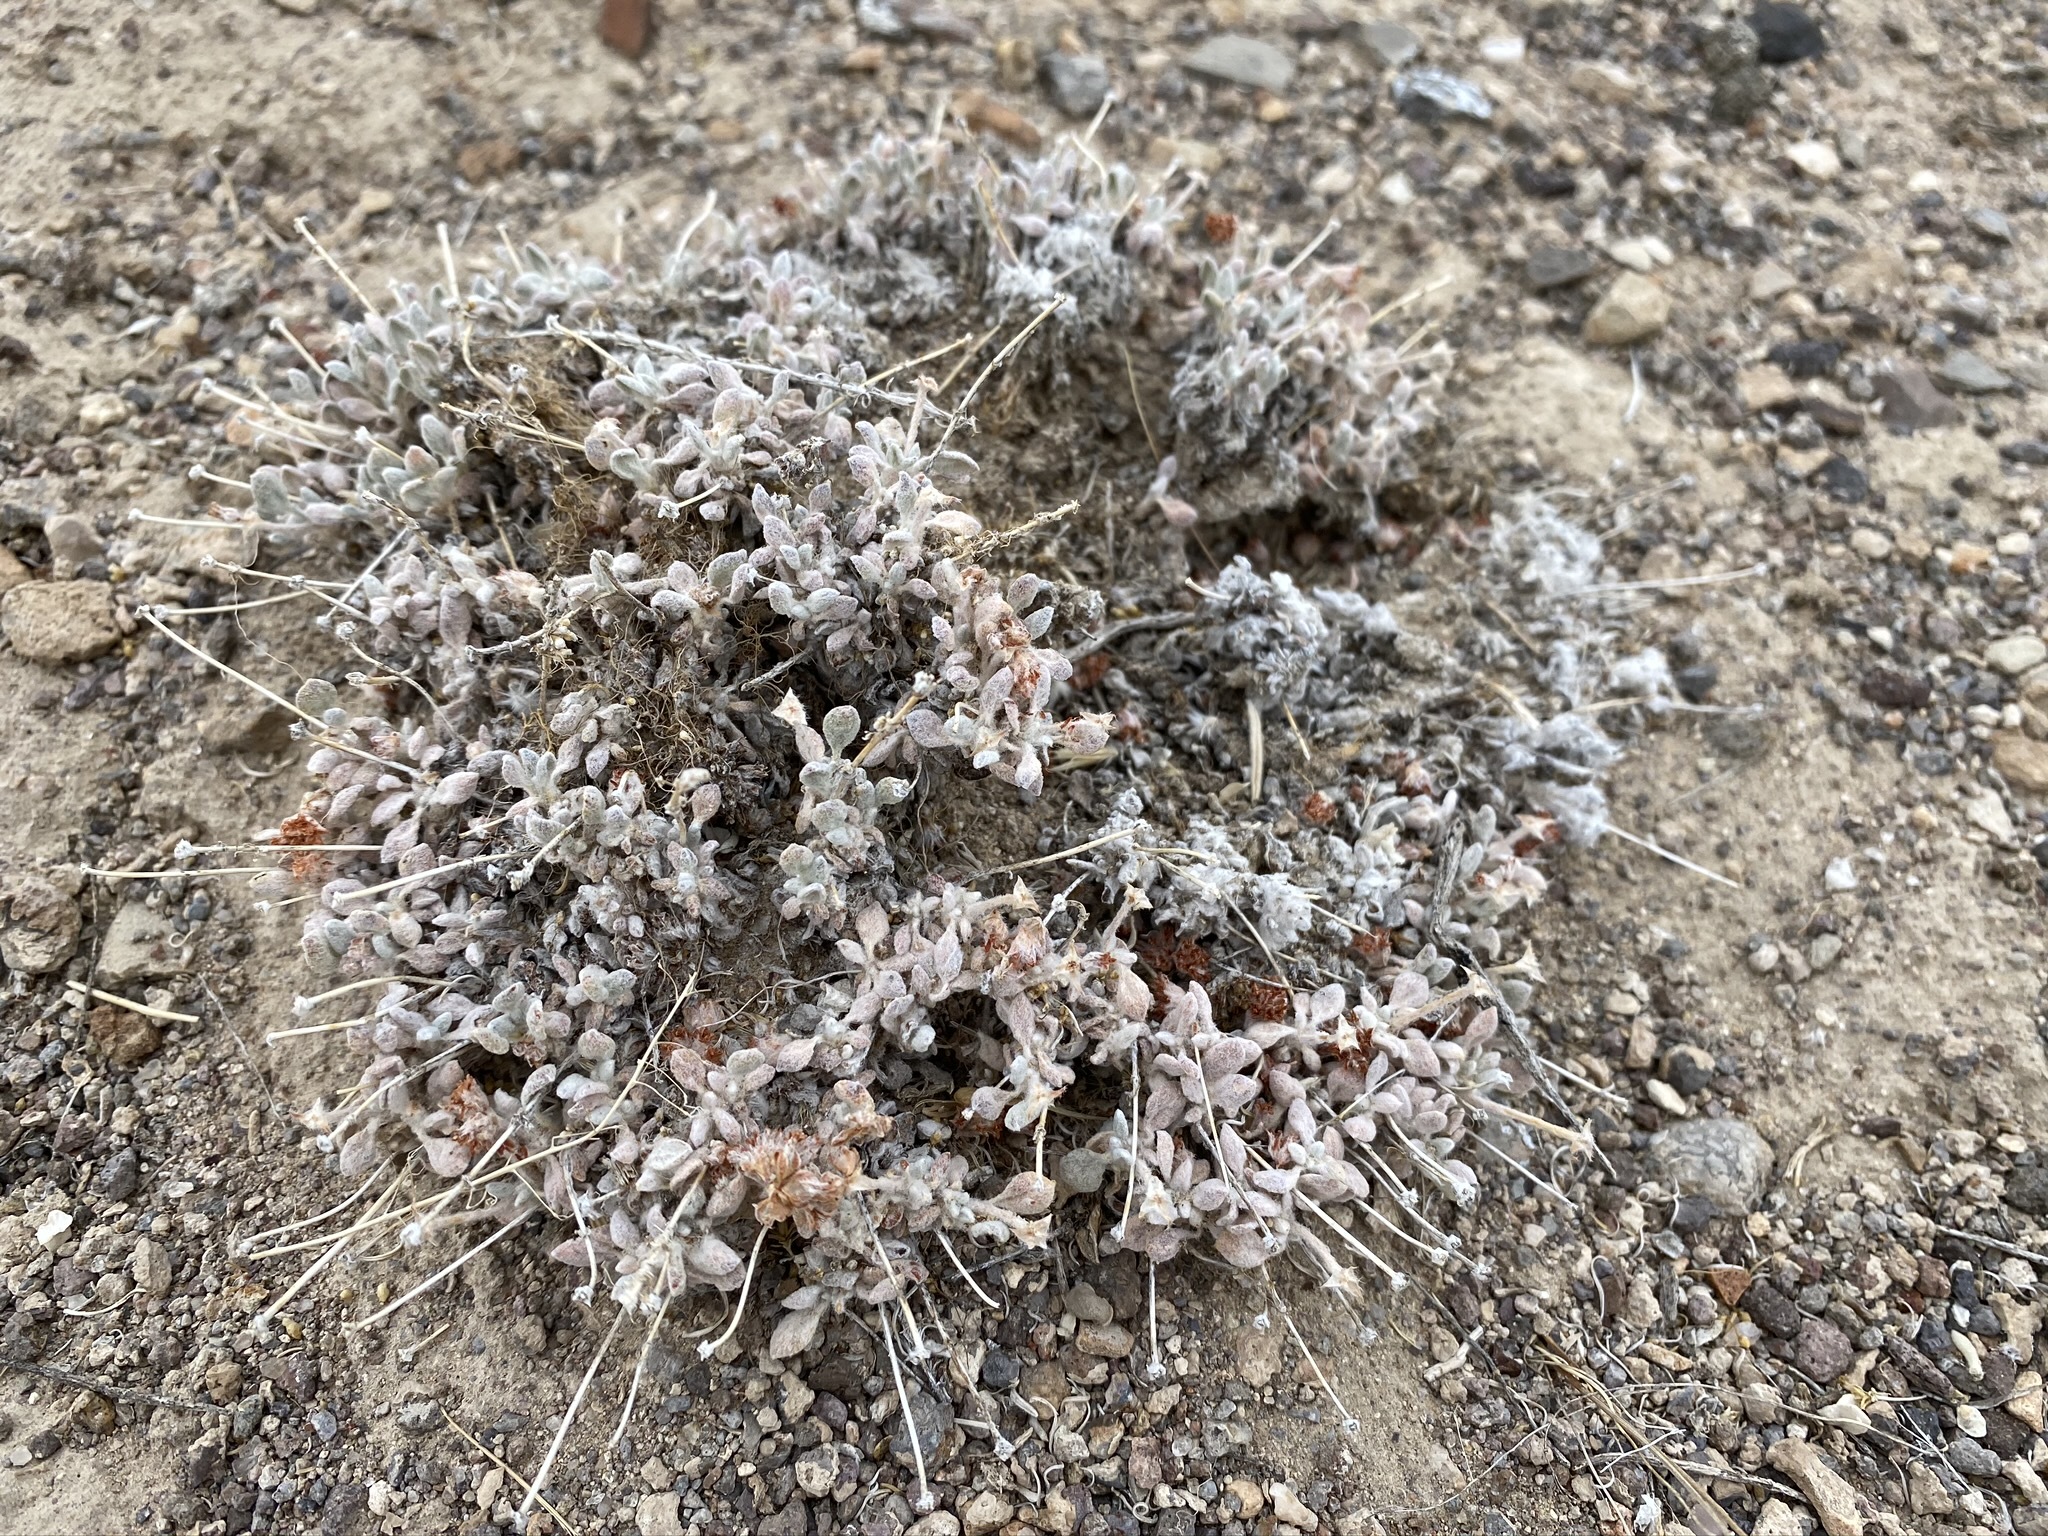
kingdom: Plantae
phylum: Tracheophyta
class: Magnoliopsida
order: Caryophyllales
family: Polygonaceae
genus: Eriogonum
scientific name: Eriogonum shockleyi
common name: Shockley's wild buckwheat
